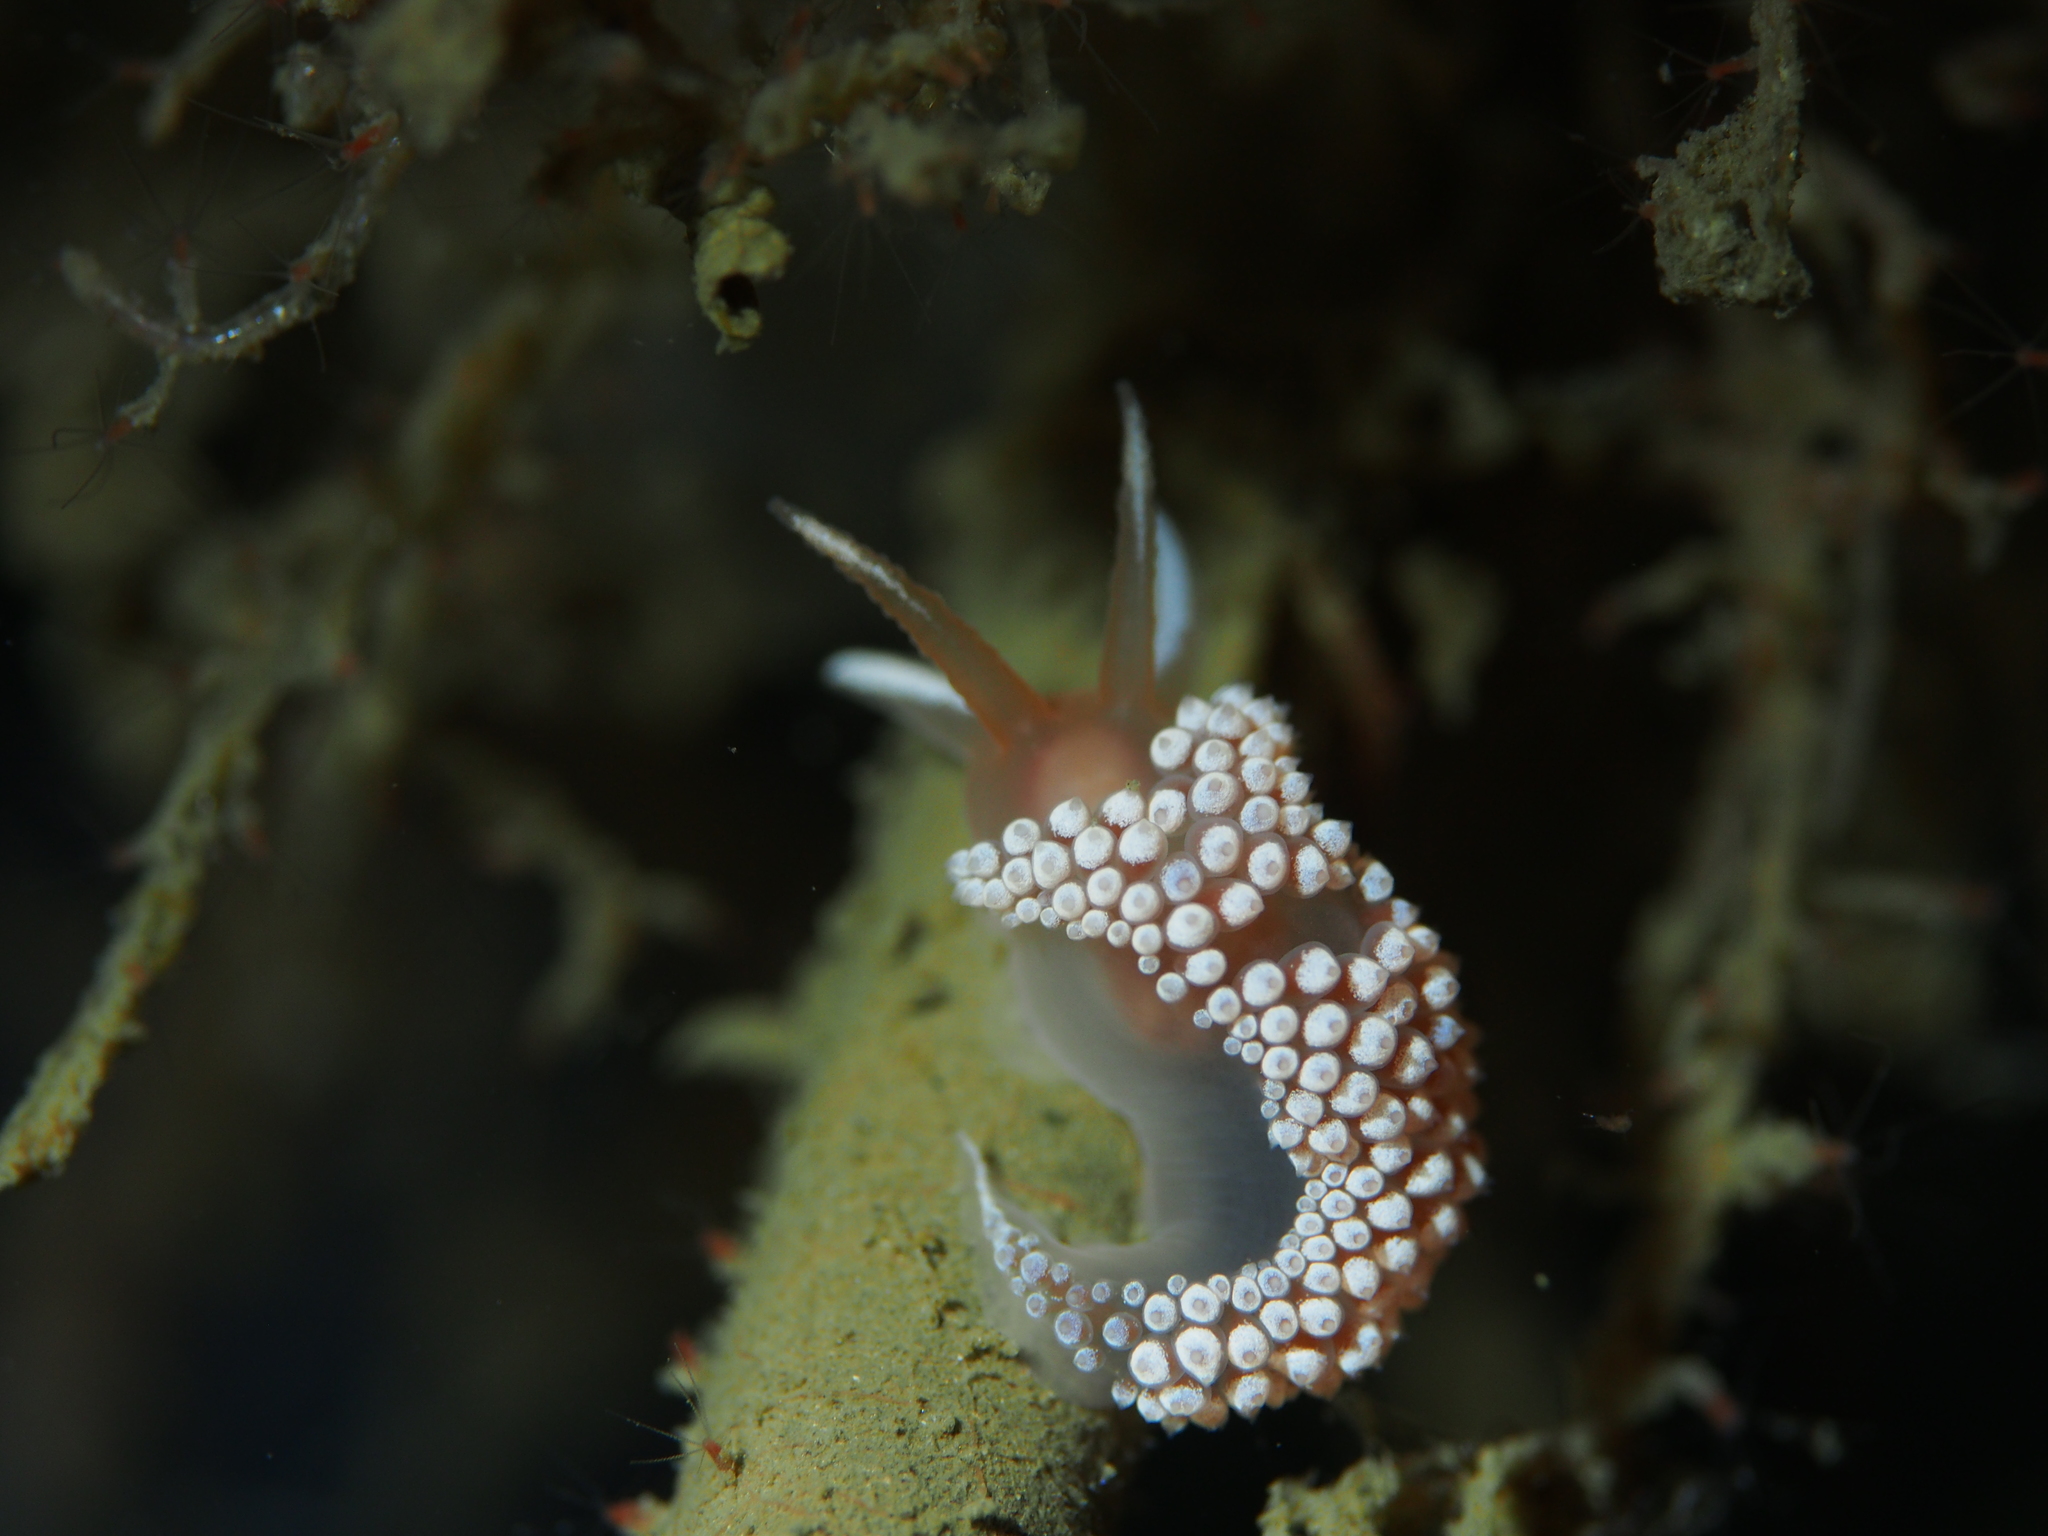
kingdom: Animalia
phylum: Mollusca
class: Gastropoda
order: Nudibranchia
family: Coryphellidae
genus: Coryphella
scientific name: Coryphella verrucosa
